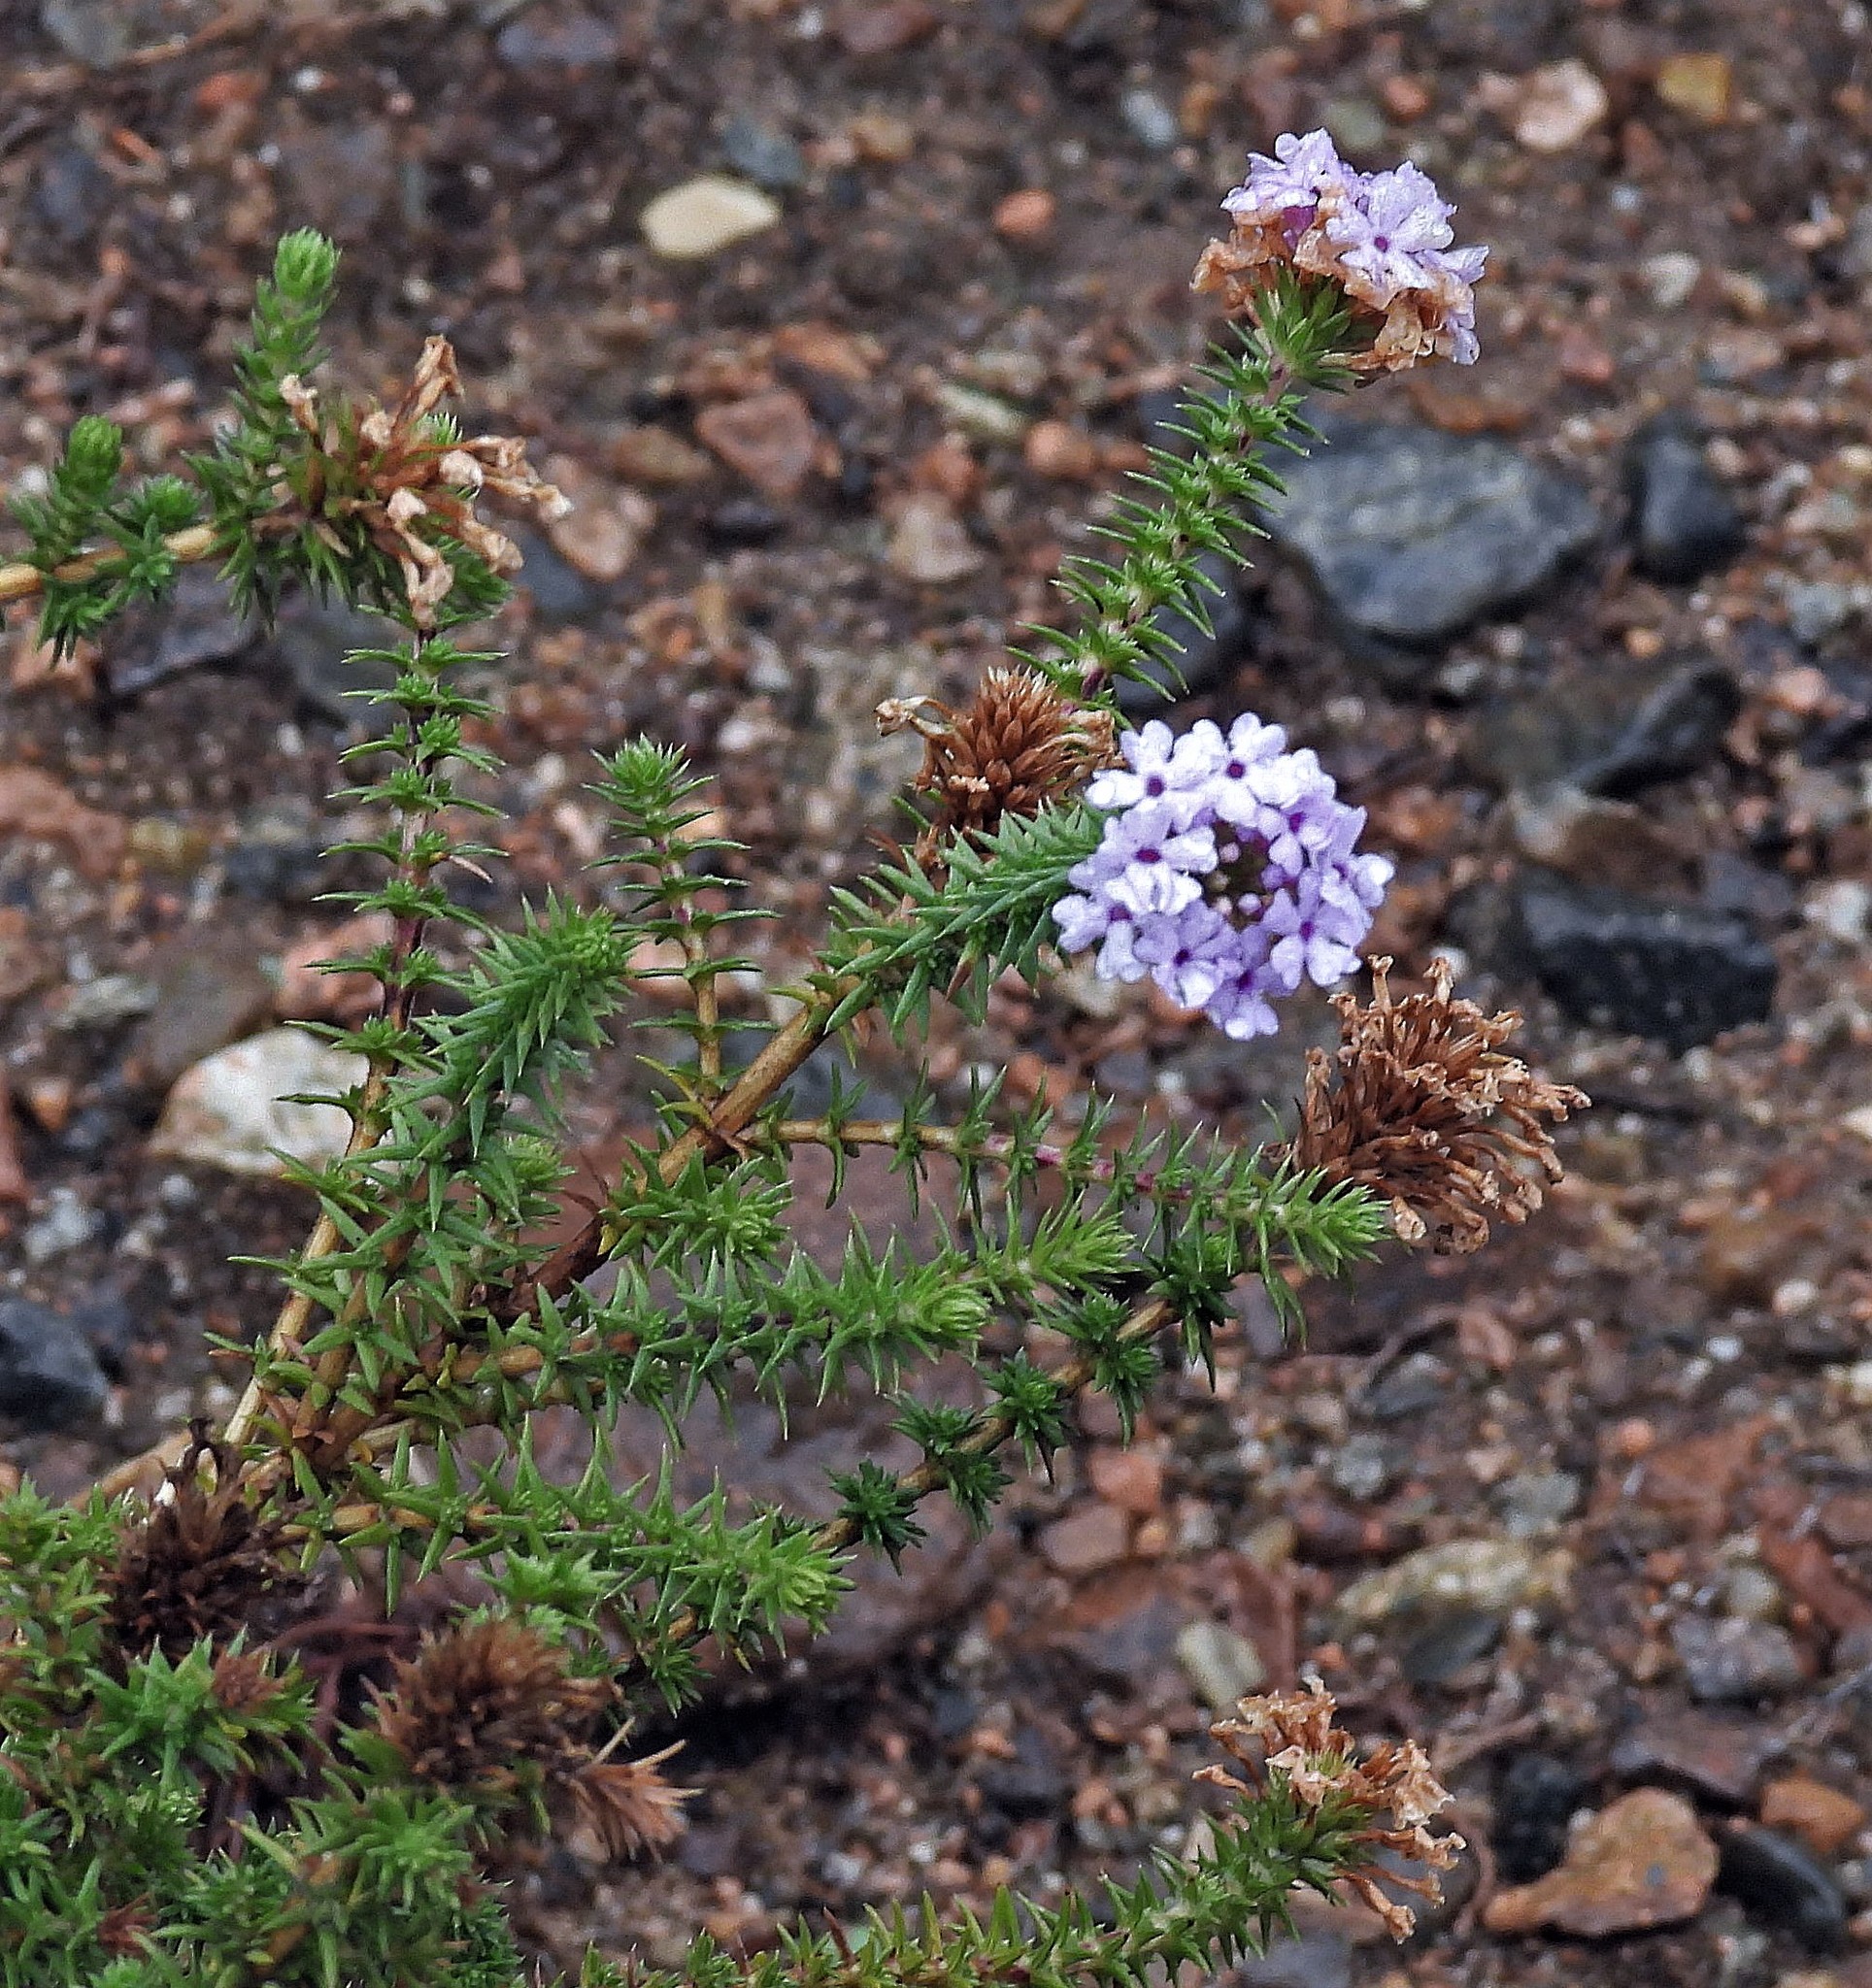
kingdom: Plantae
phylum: Tracheophyta
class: Magnoliopsida
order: Lamiales
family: Verbenaceae
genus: Junellia
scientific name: Junellia juniperina
